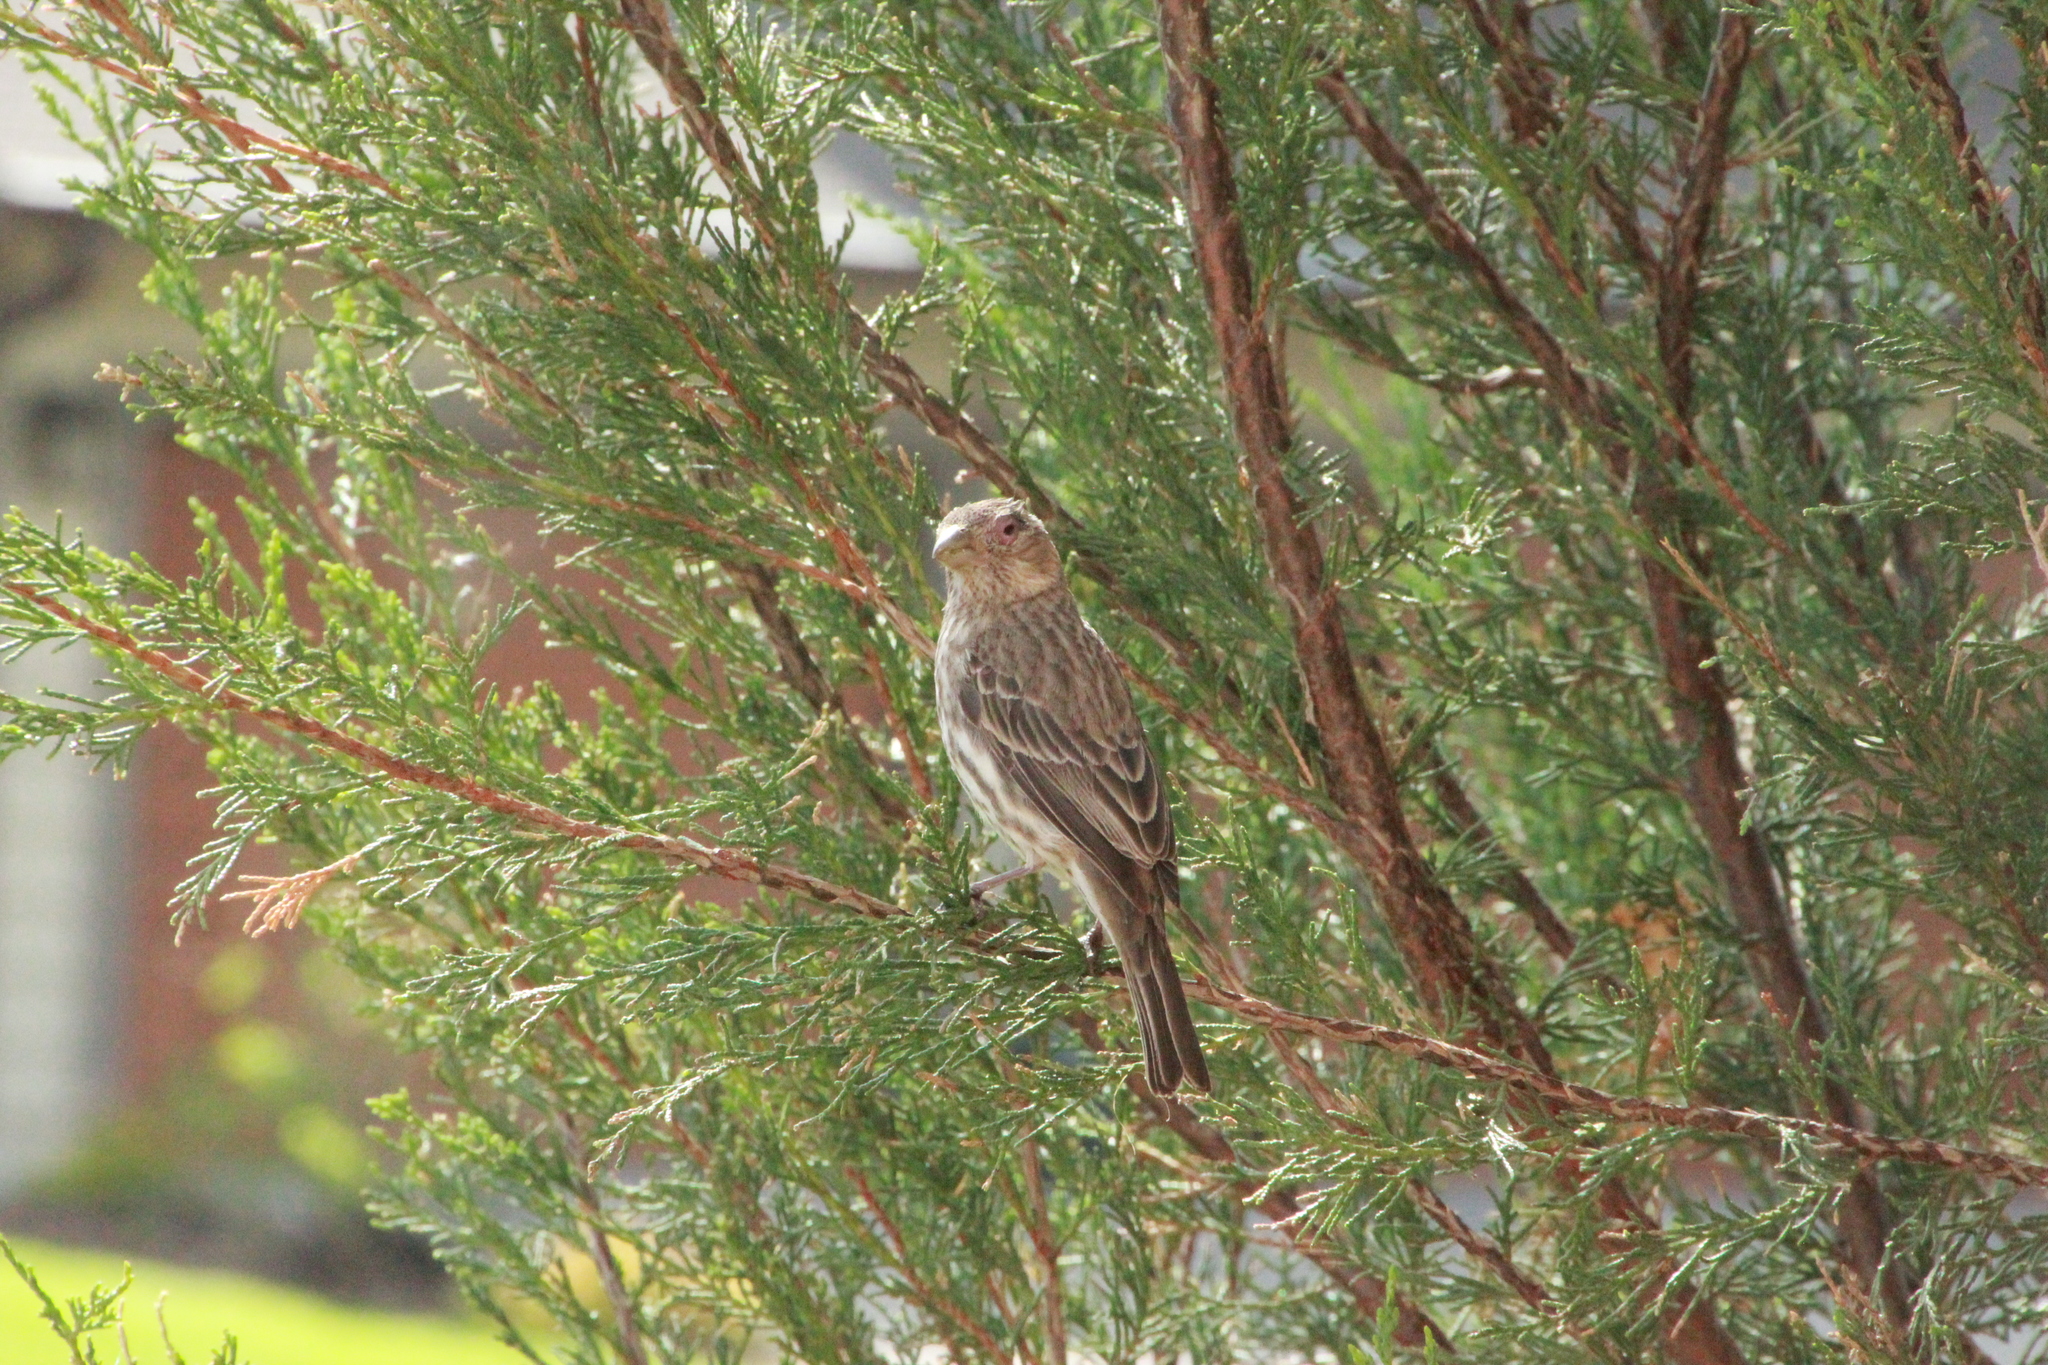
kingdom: Animalia
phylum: Chordata
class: Aves
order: Passeriformes
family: Fringillidae
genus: Haemorhous
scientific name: Haemorhous mexicanus
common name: House finch
